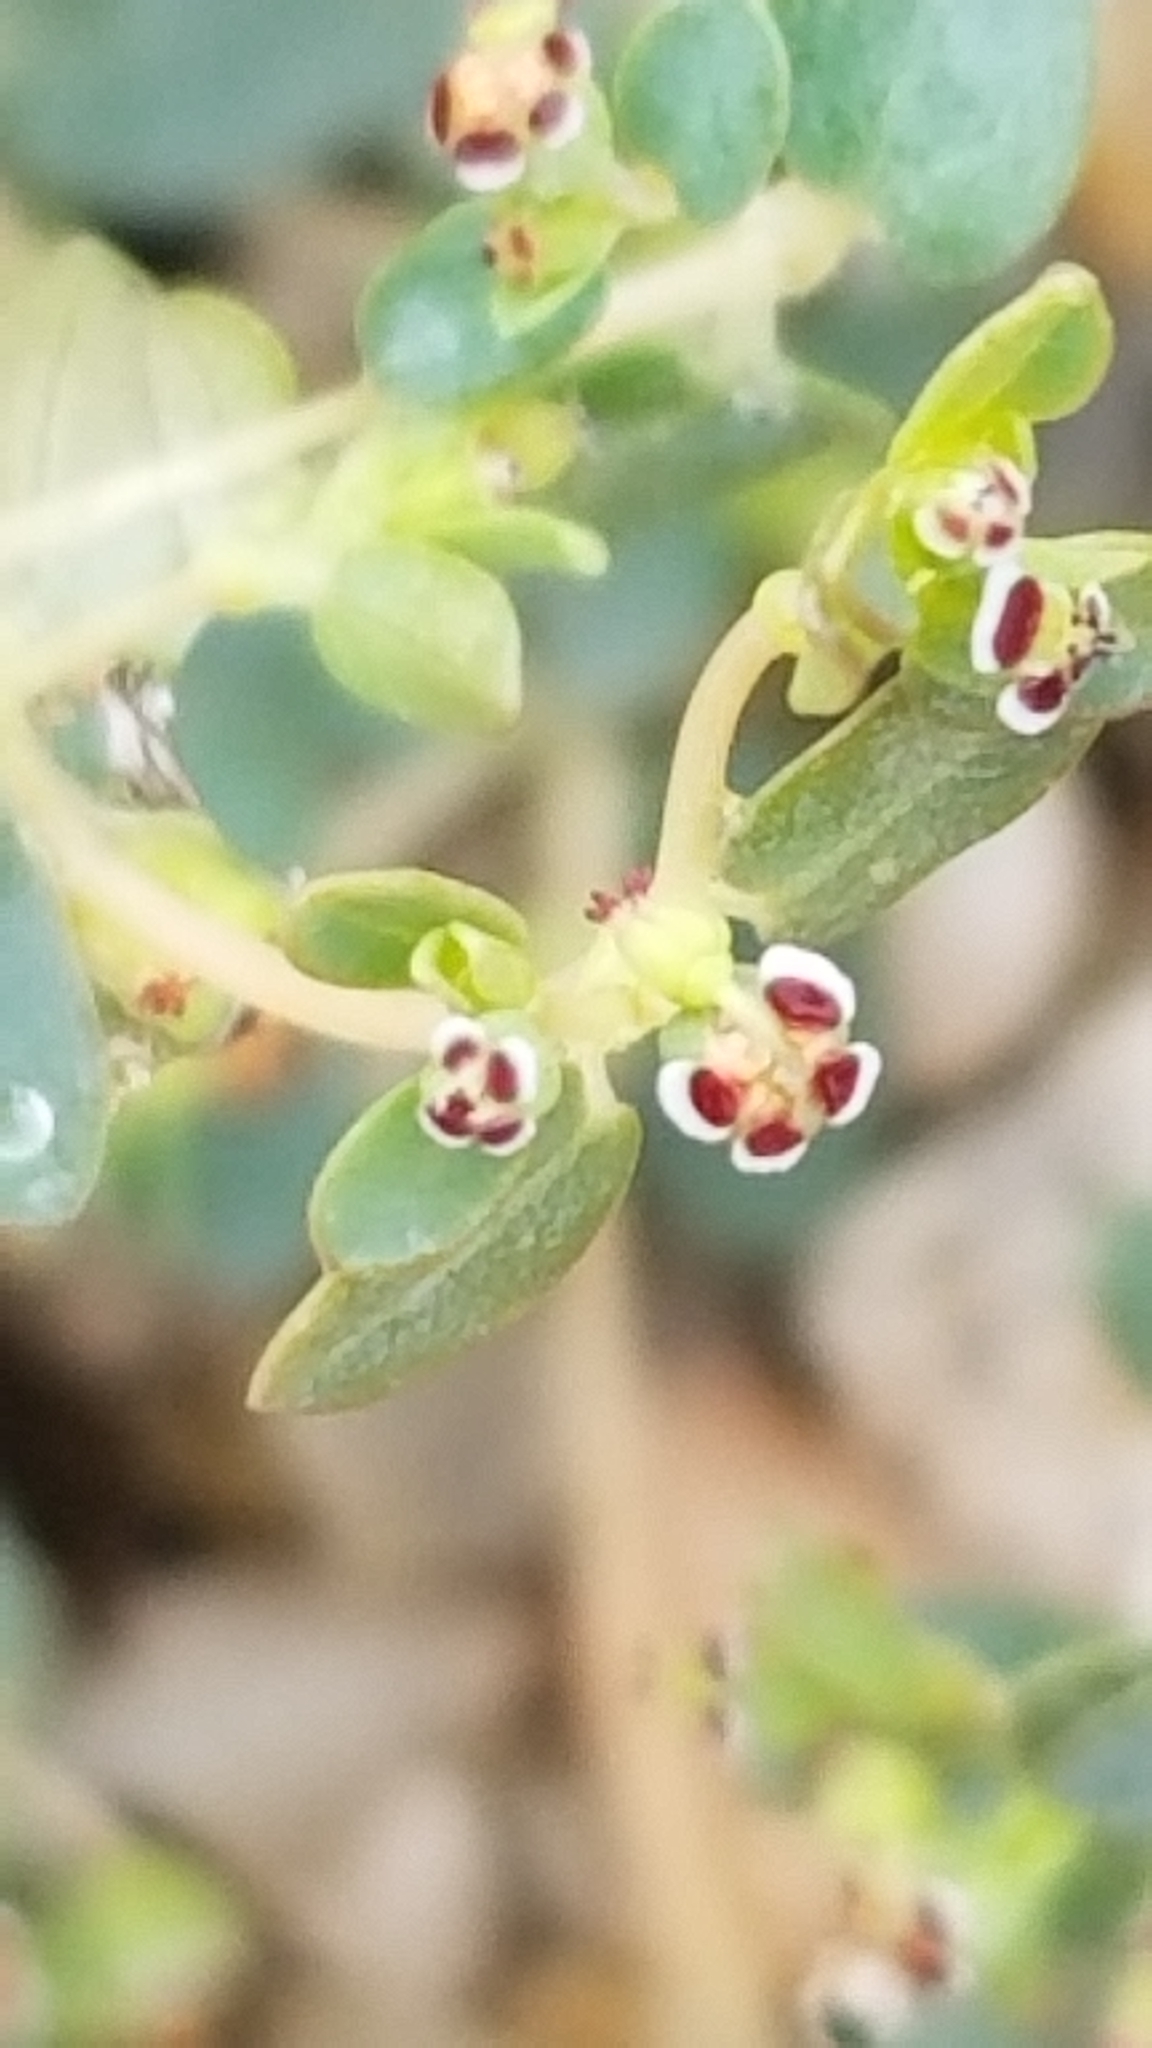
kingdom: Plantae
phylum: Tracheophyta
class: Magnoliopsida
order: Malpighiales
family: Euphorbiaceae
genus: Euphorbia
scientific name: Euphorbia polycarpa
